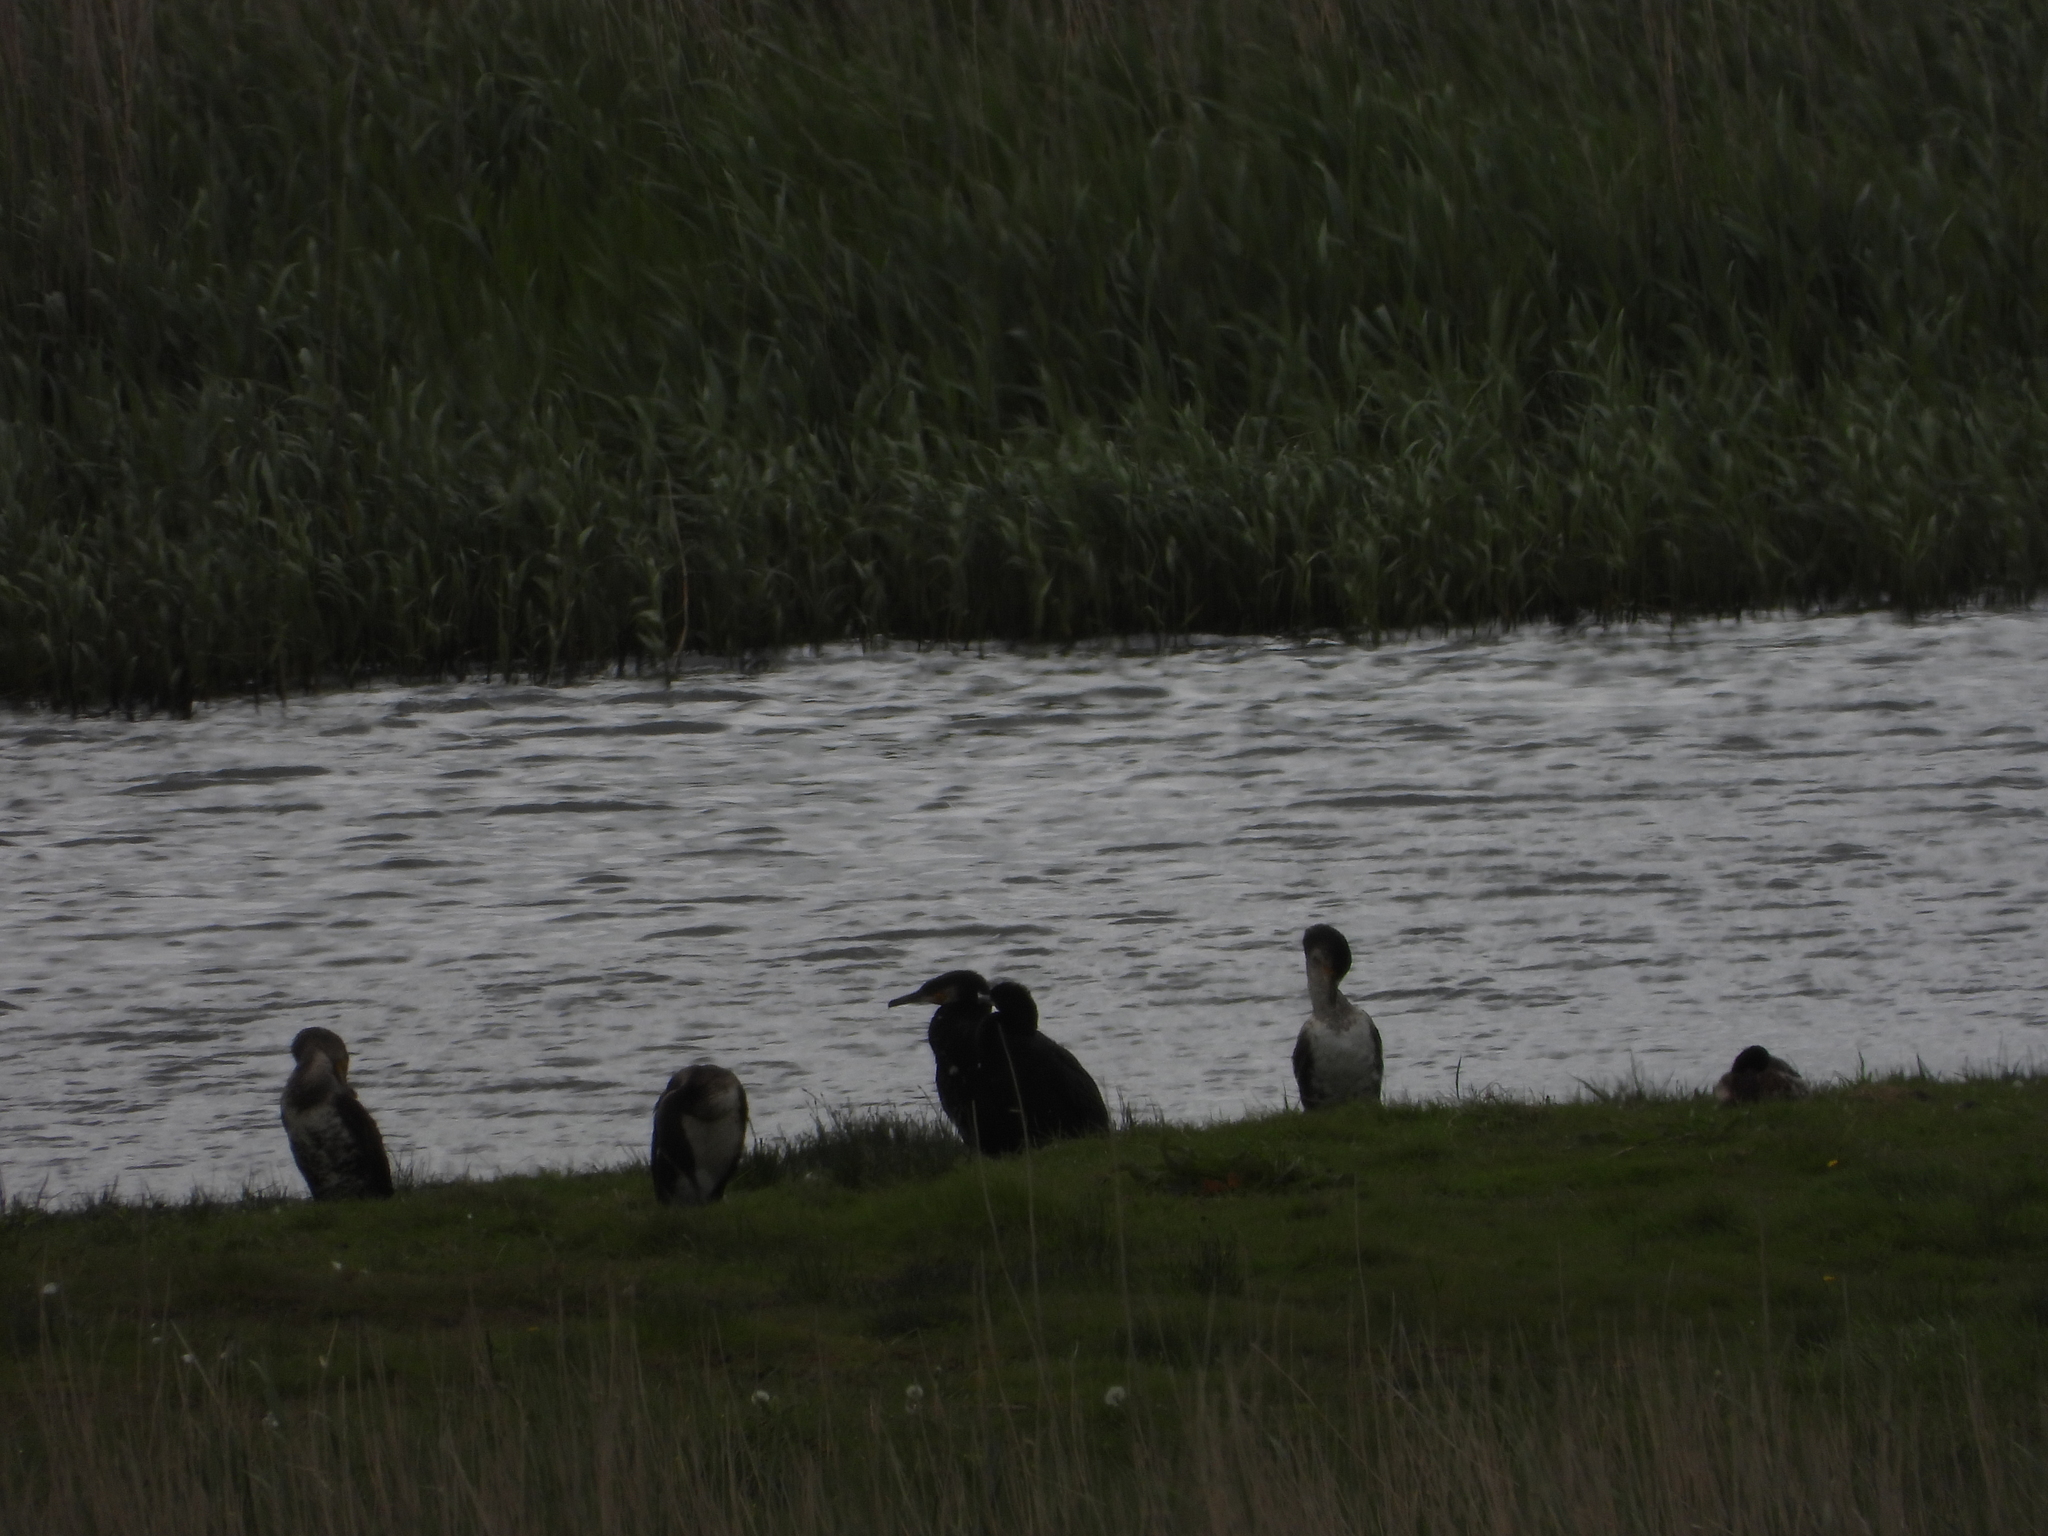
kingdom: Animalia
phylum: Chordata
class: Aves
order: Suliformes
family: Phalacrocoracidae
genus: Phalacrocorax
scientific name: Phalacrocorax carbo
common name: Great cormorant
